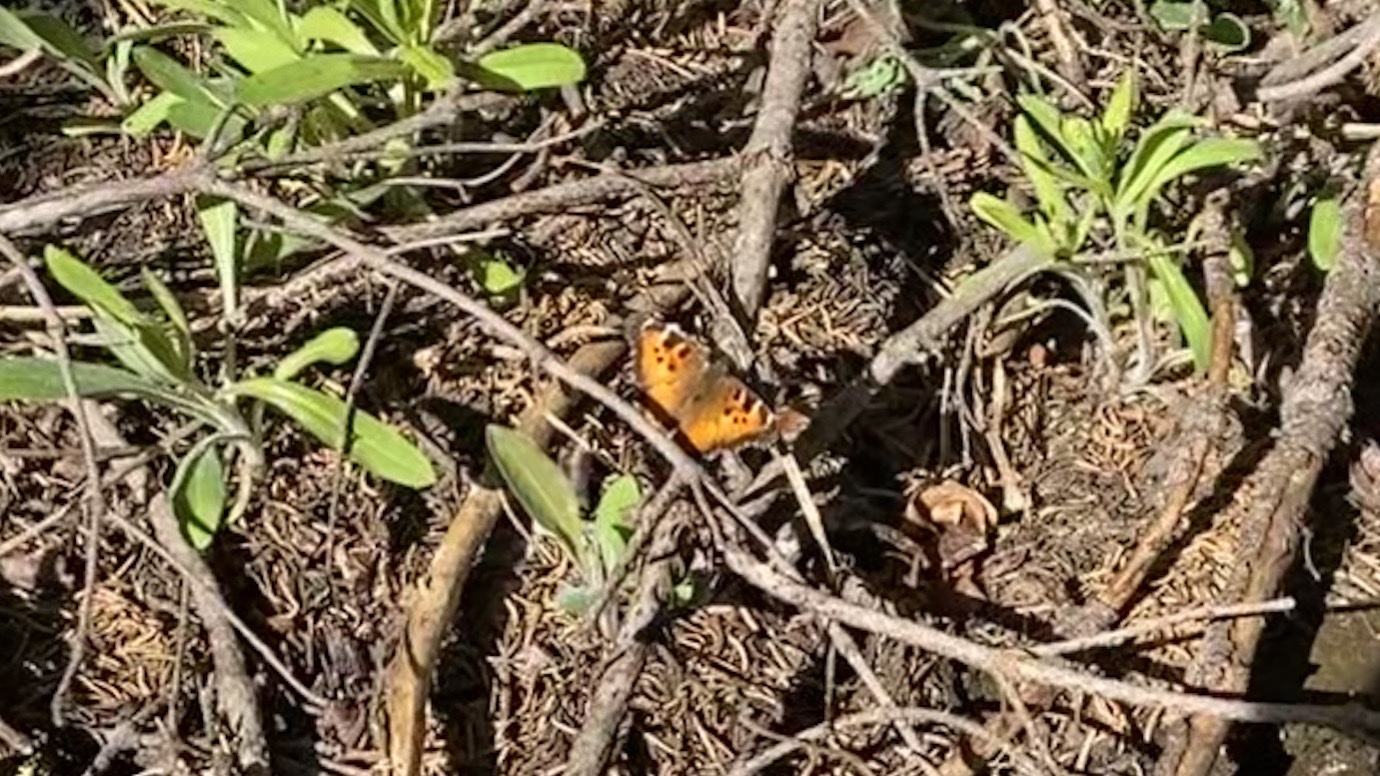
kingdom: Animalia
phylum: Arthropoda
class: Insecta
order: Lepidoptera
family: Nymphalidae
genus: Nymphalis
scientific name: Nymphalis californica
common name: California tortoiseshell
